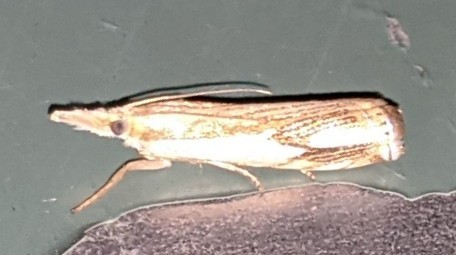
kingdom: Animalia
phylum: Arthropoda
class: Insecta
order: Lepidoptera
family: Crambidae
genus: Crambus
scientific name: Crambus agitatellus
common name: Double-banded grass-veneer
